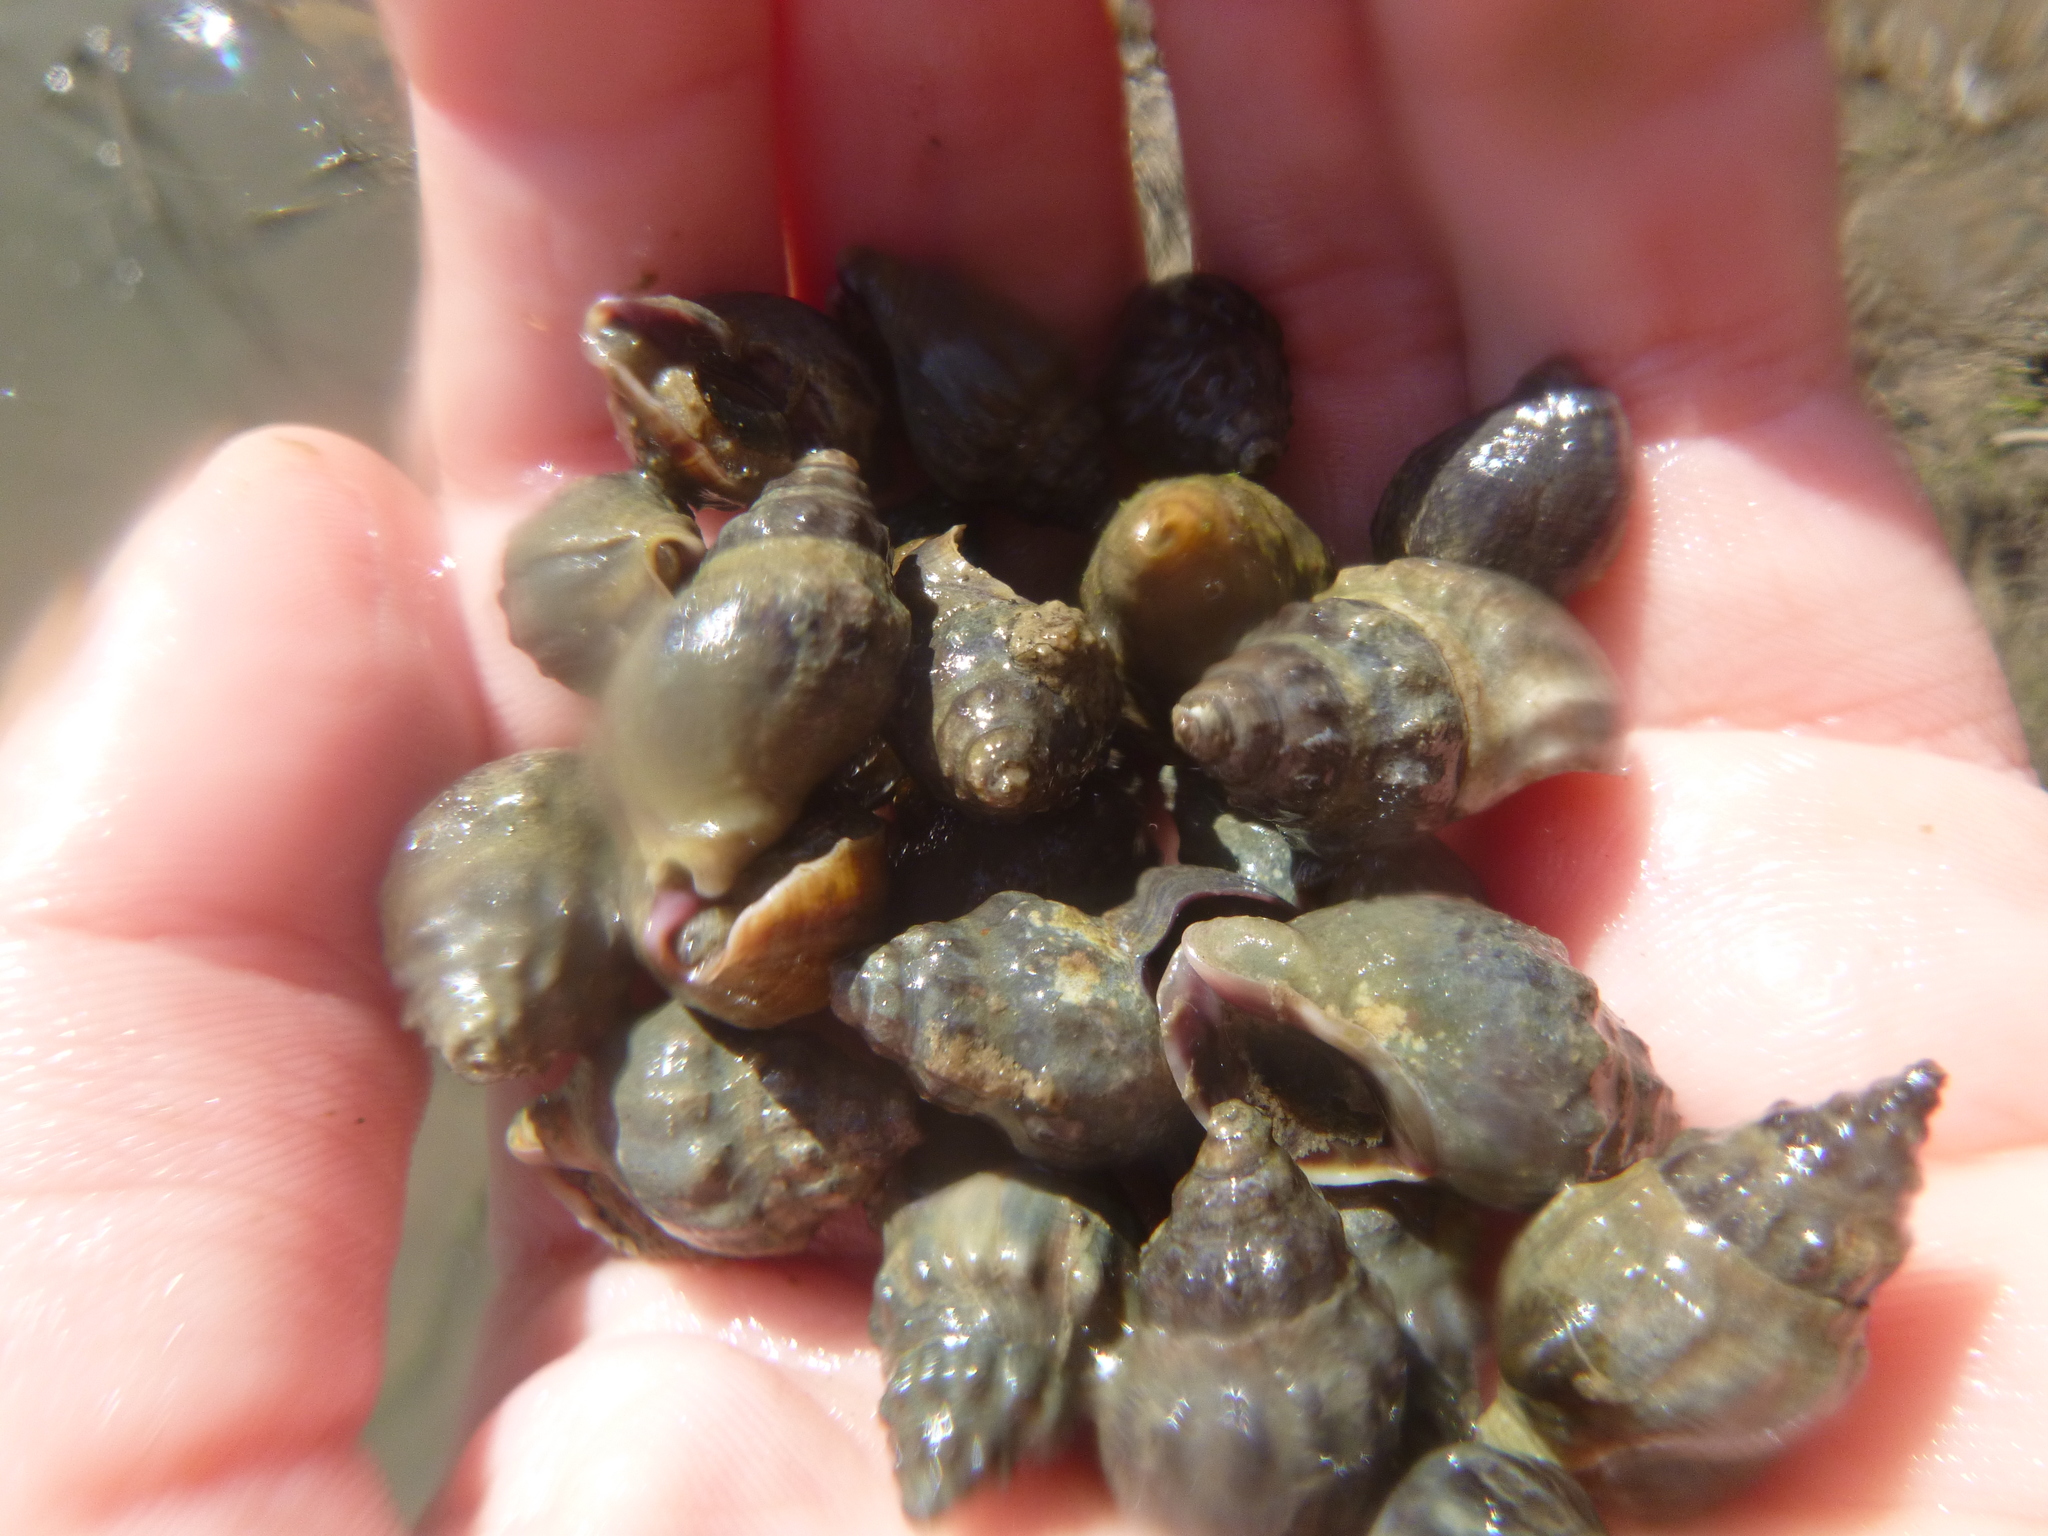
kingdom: Animalia
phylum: Mollusca
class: Gastropoda
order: Neogastropoda
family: Cominellidae
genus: Cominella
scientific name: Cominella glandiformis
